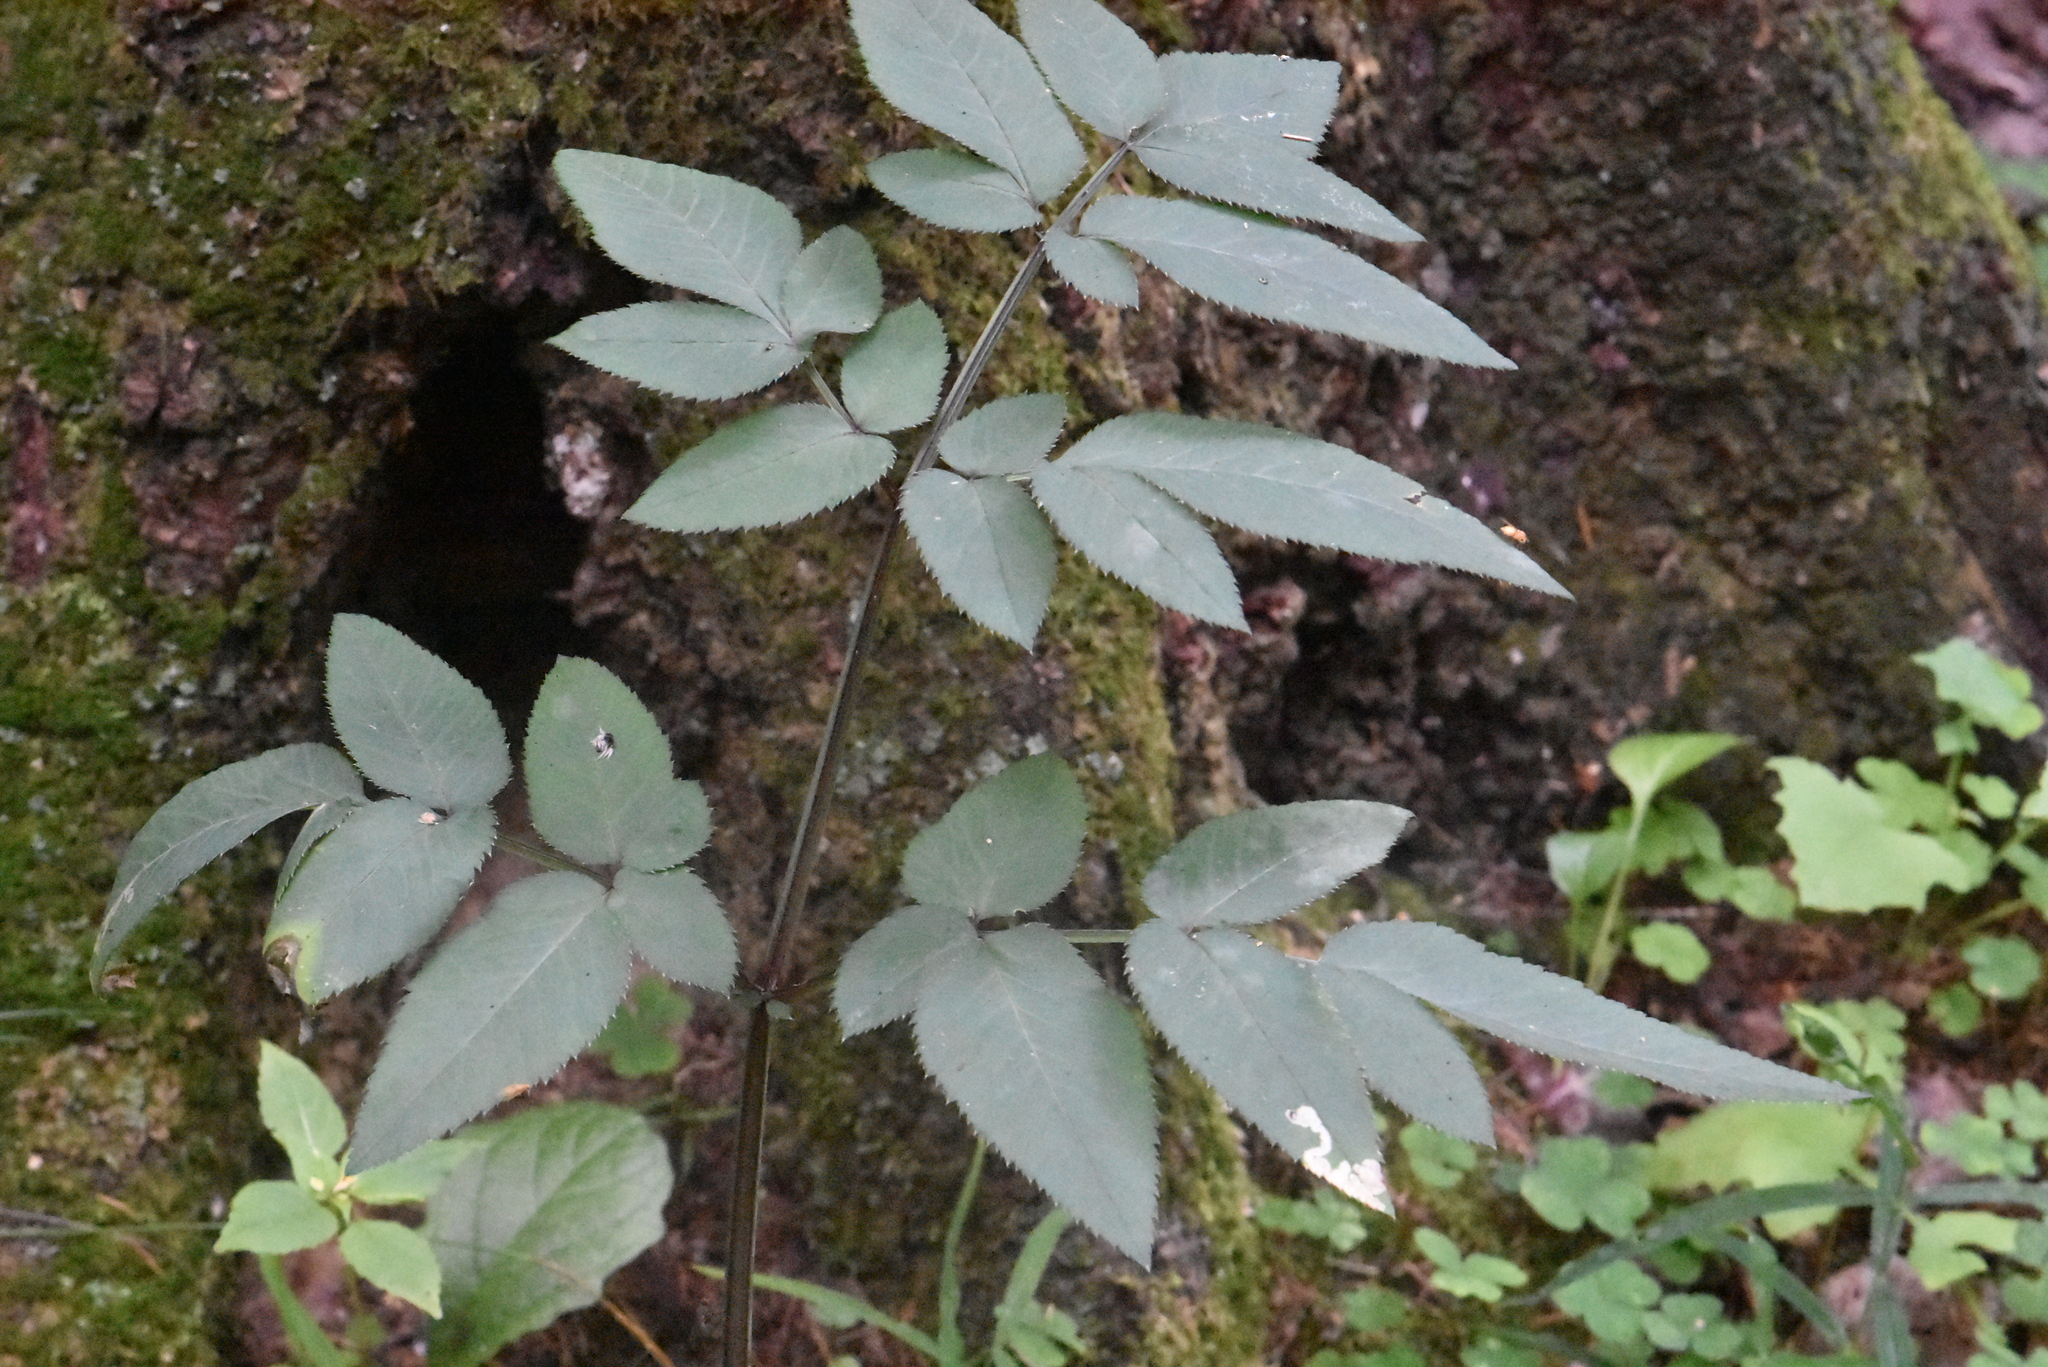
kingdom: Plantae
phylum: Tracheophyta
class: Magnoliopsida
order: Apiales
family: Apiaceae
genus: Angelica
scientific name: Angelica sylvestris
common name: Wild angelica
